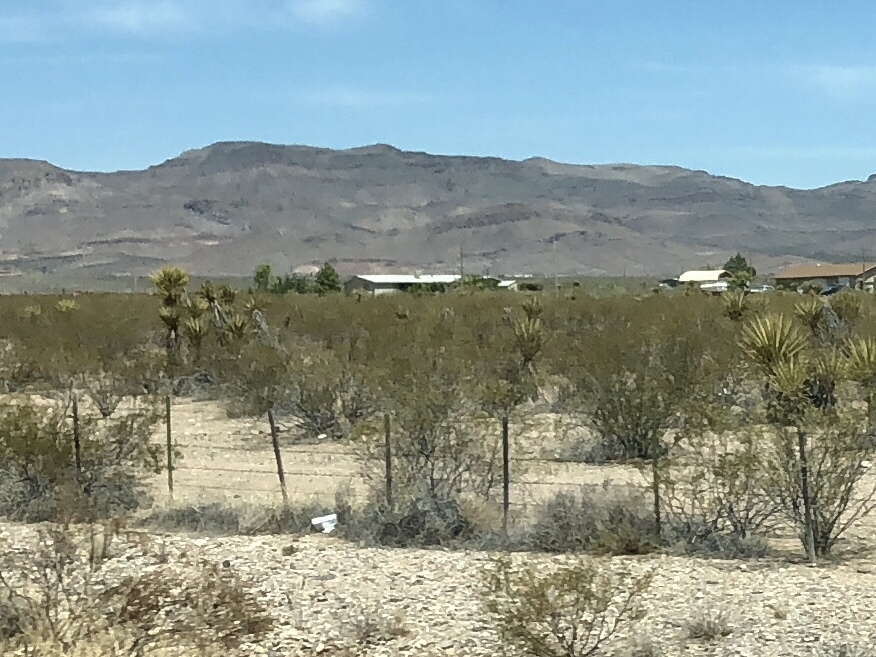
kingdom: Plantae
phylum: Tracheophyta
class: Magnoliopsida
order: Zygophyllales
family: Zygophyllaceae
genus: Larrea
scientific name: Larrea tridentata
